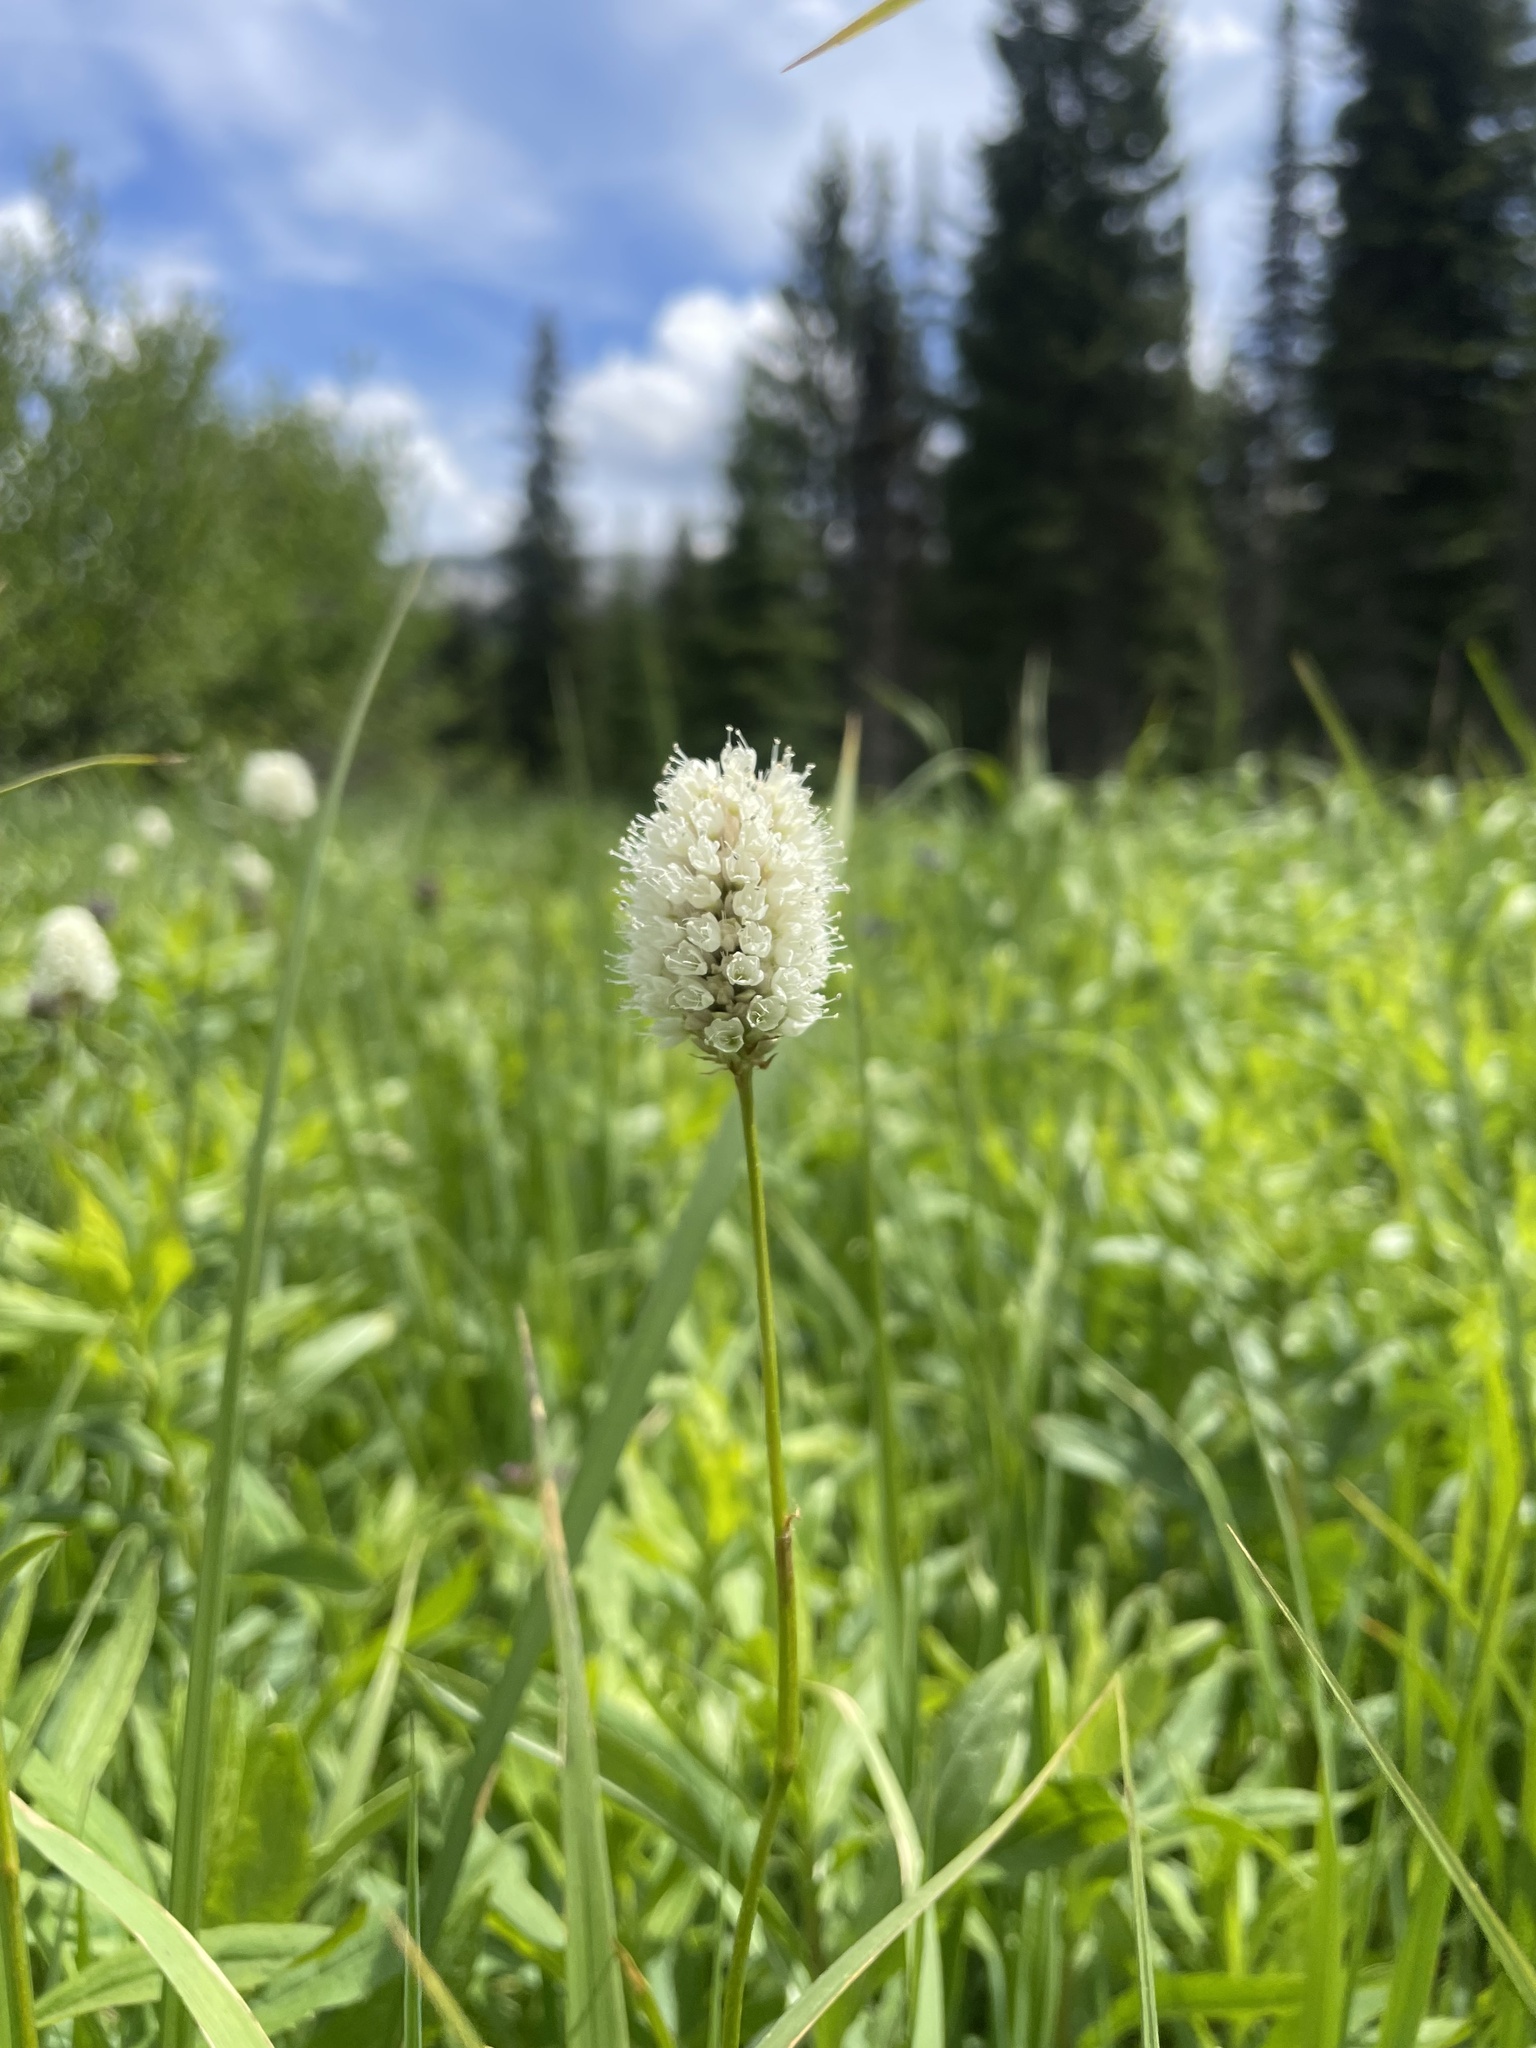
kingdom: Plantae
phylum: Tracheophyta
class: Magnoliopsida
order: Caryophyllales
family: Polygonaceae
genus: Bistorta
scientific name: Bistorta bistortoides
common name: American bistort
